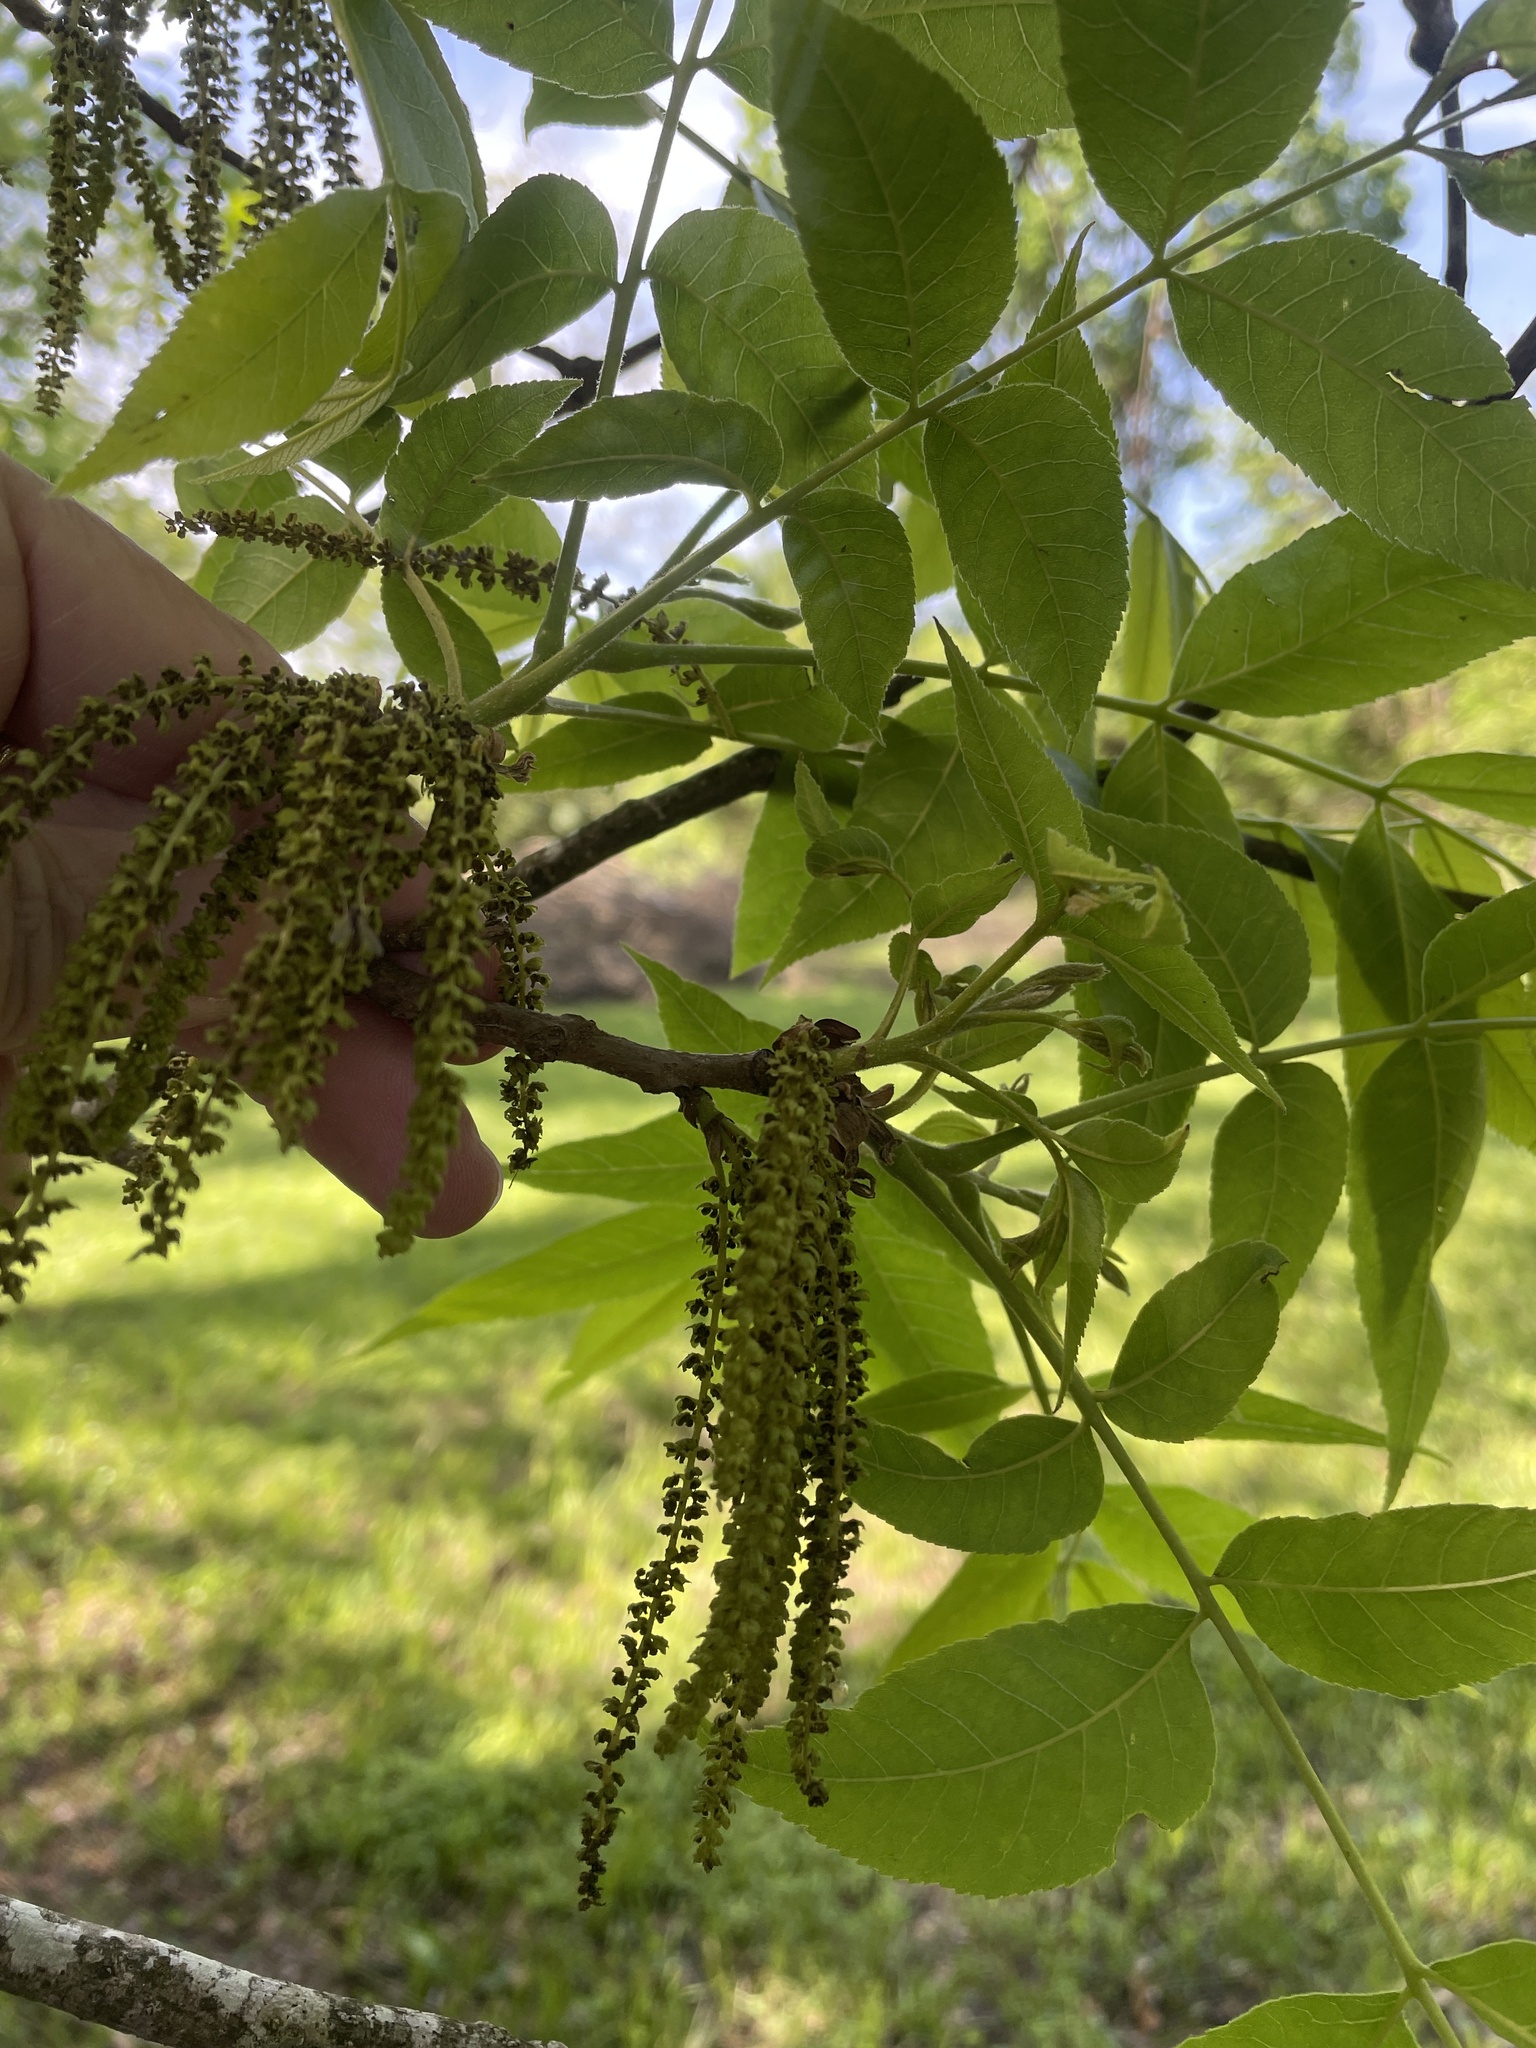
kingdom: Plantae
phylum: Tracheophyta
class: Magnoliopsida
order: Fagales
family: Juglandaceae
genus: Carya
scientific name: Carya illinoinensis
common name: Pecan
